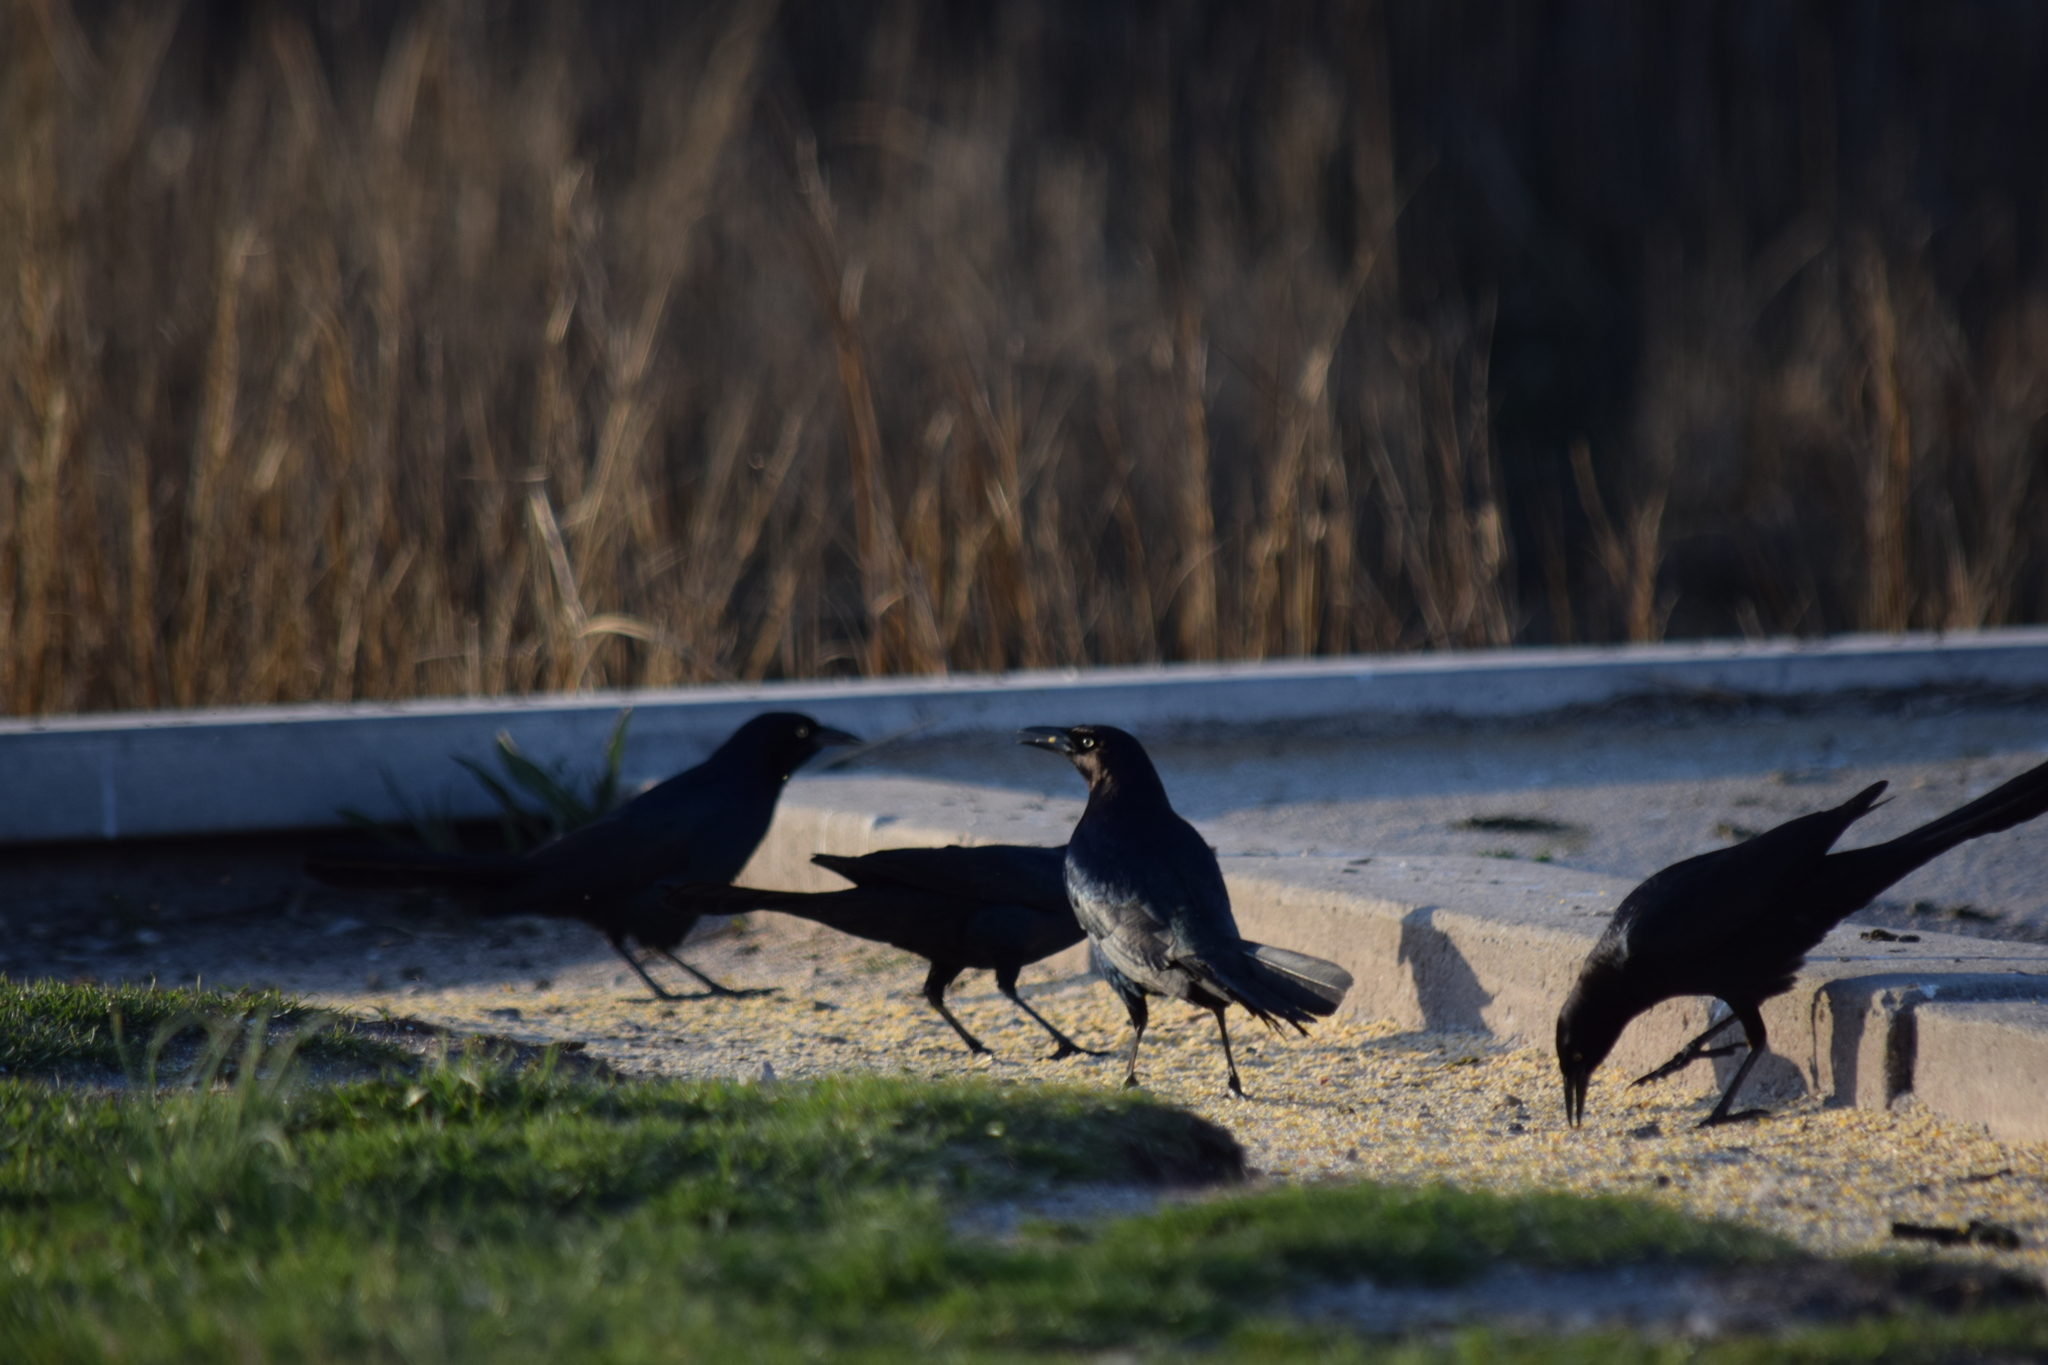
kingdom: Animalia
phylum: Chordata
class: Aves
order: Passeriformes
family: Icteridae
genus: Quiscalus
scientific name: Quiscalus major
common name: Boat-tailed grackle
